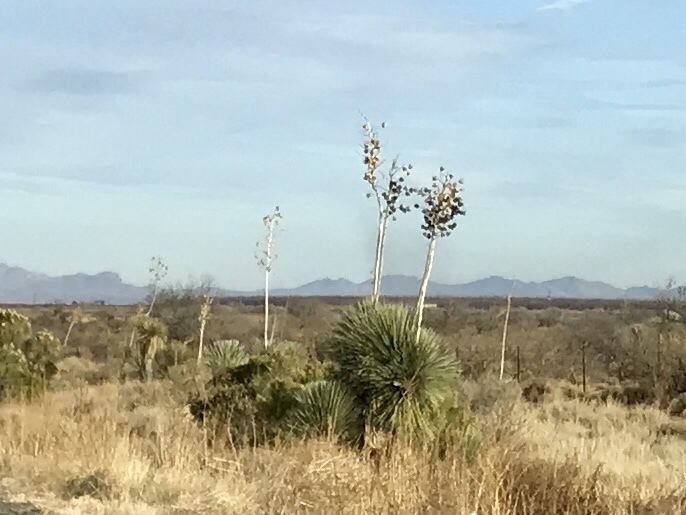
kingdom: Plantae
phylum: Tracheophyta
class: Liliopsida
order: Asparagales
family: Asparagaceae
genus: Yucca
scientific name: Yucca elata
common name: Palmella
